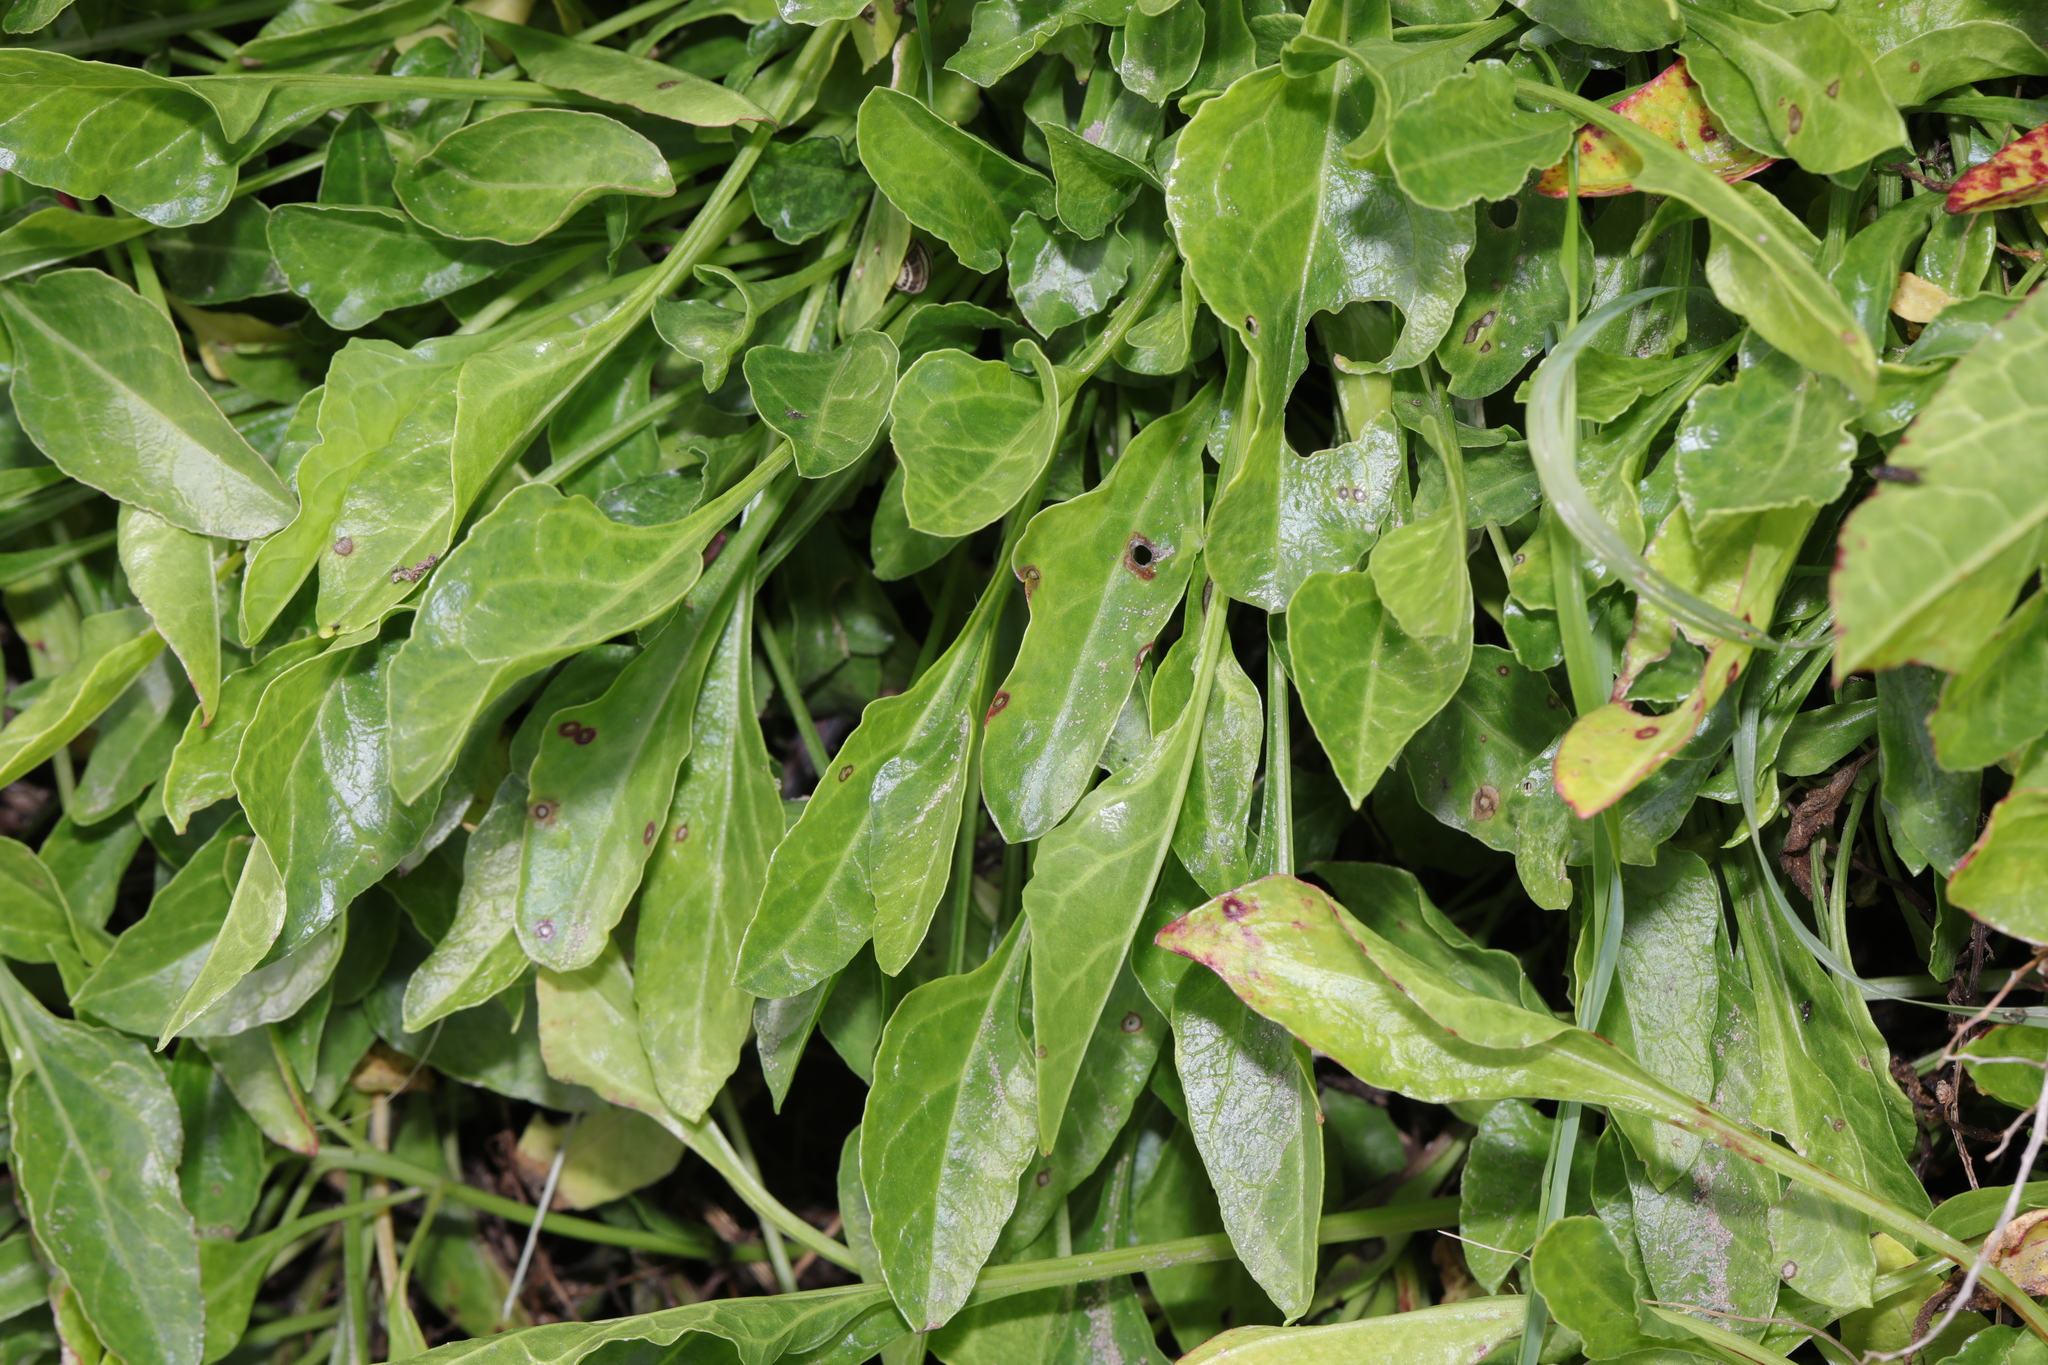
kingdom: Plantae
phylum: Tracheophyta
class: Magnoliopsida
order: Caryophyllales
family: Amaranthaceae
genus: Beta
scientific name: Beta vulgaris
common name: Beet
